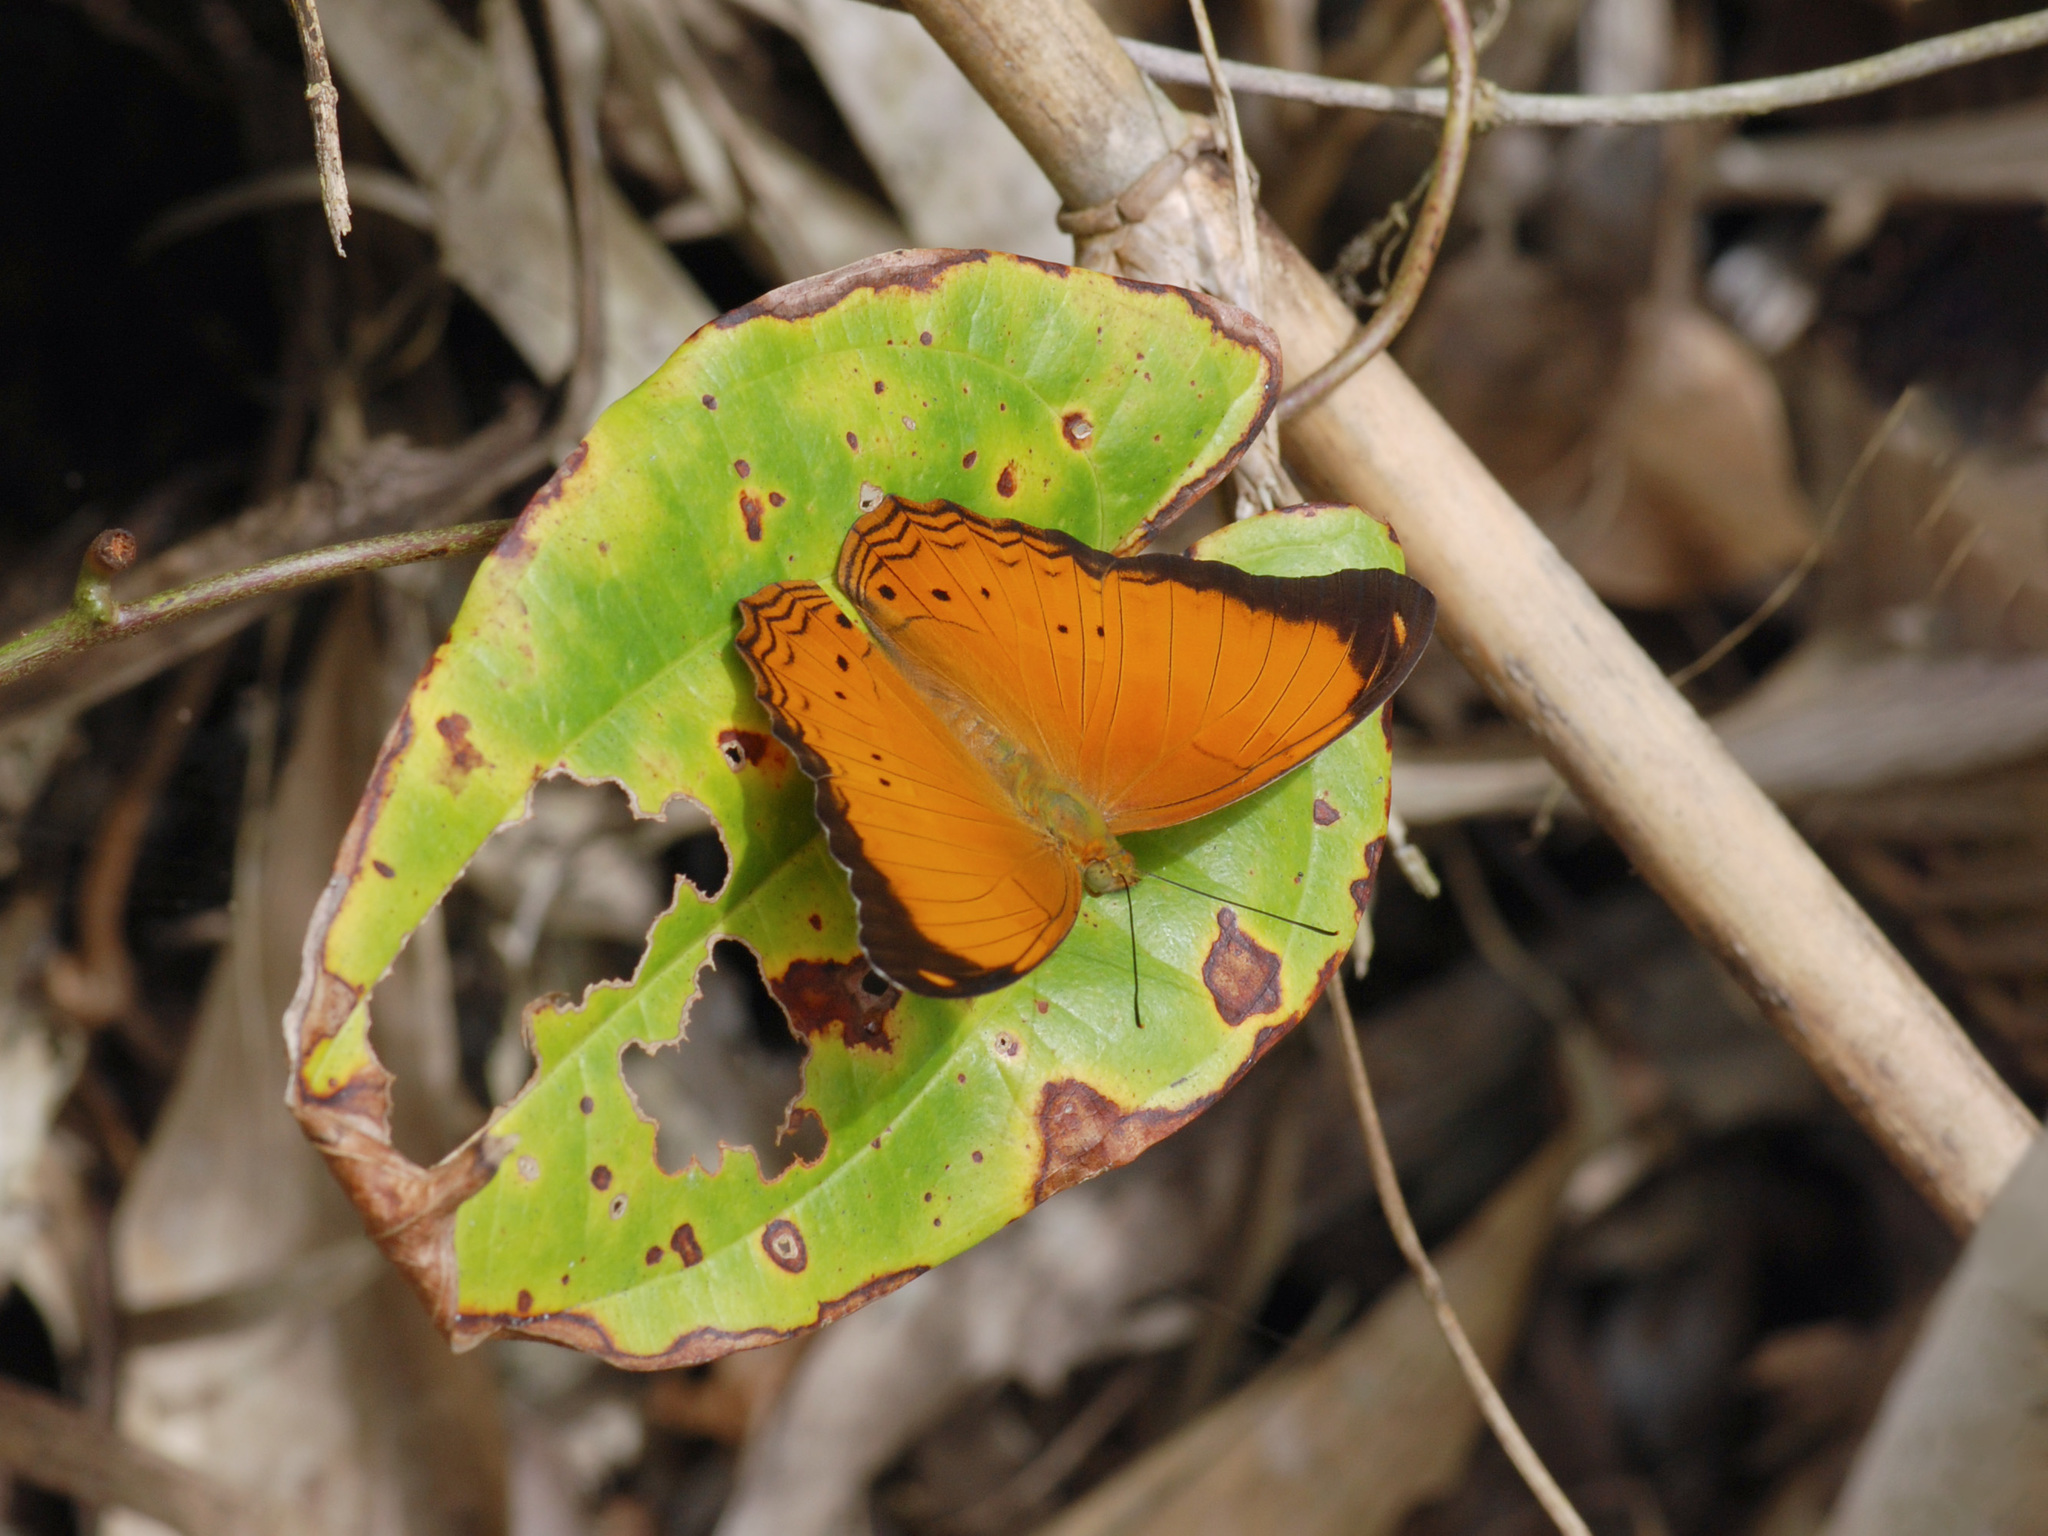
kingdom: Animalia
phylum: Arthropoda
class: Insecta
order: Lepidoptera
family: Nymphalidae
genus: Cirrochroa
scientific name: Cirrochroa emalea
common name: Malay yeoman
